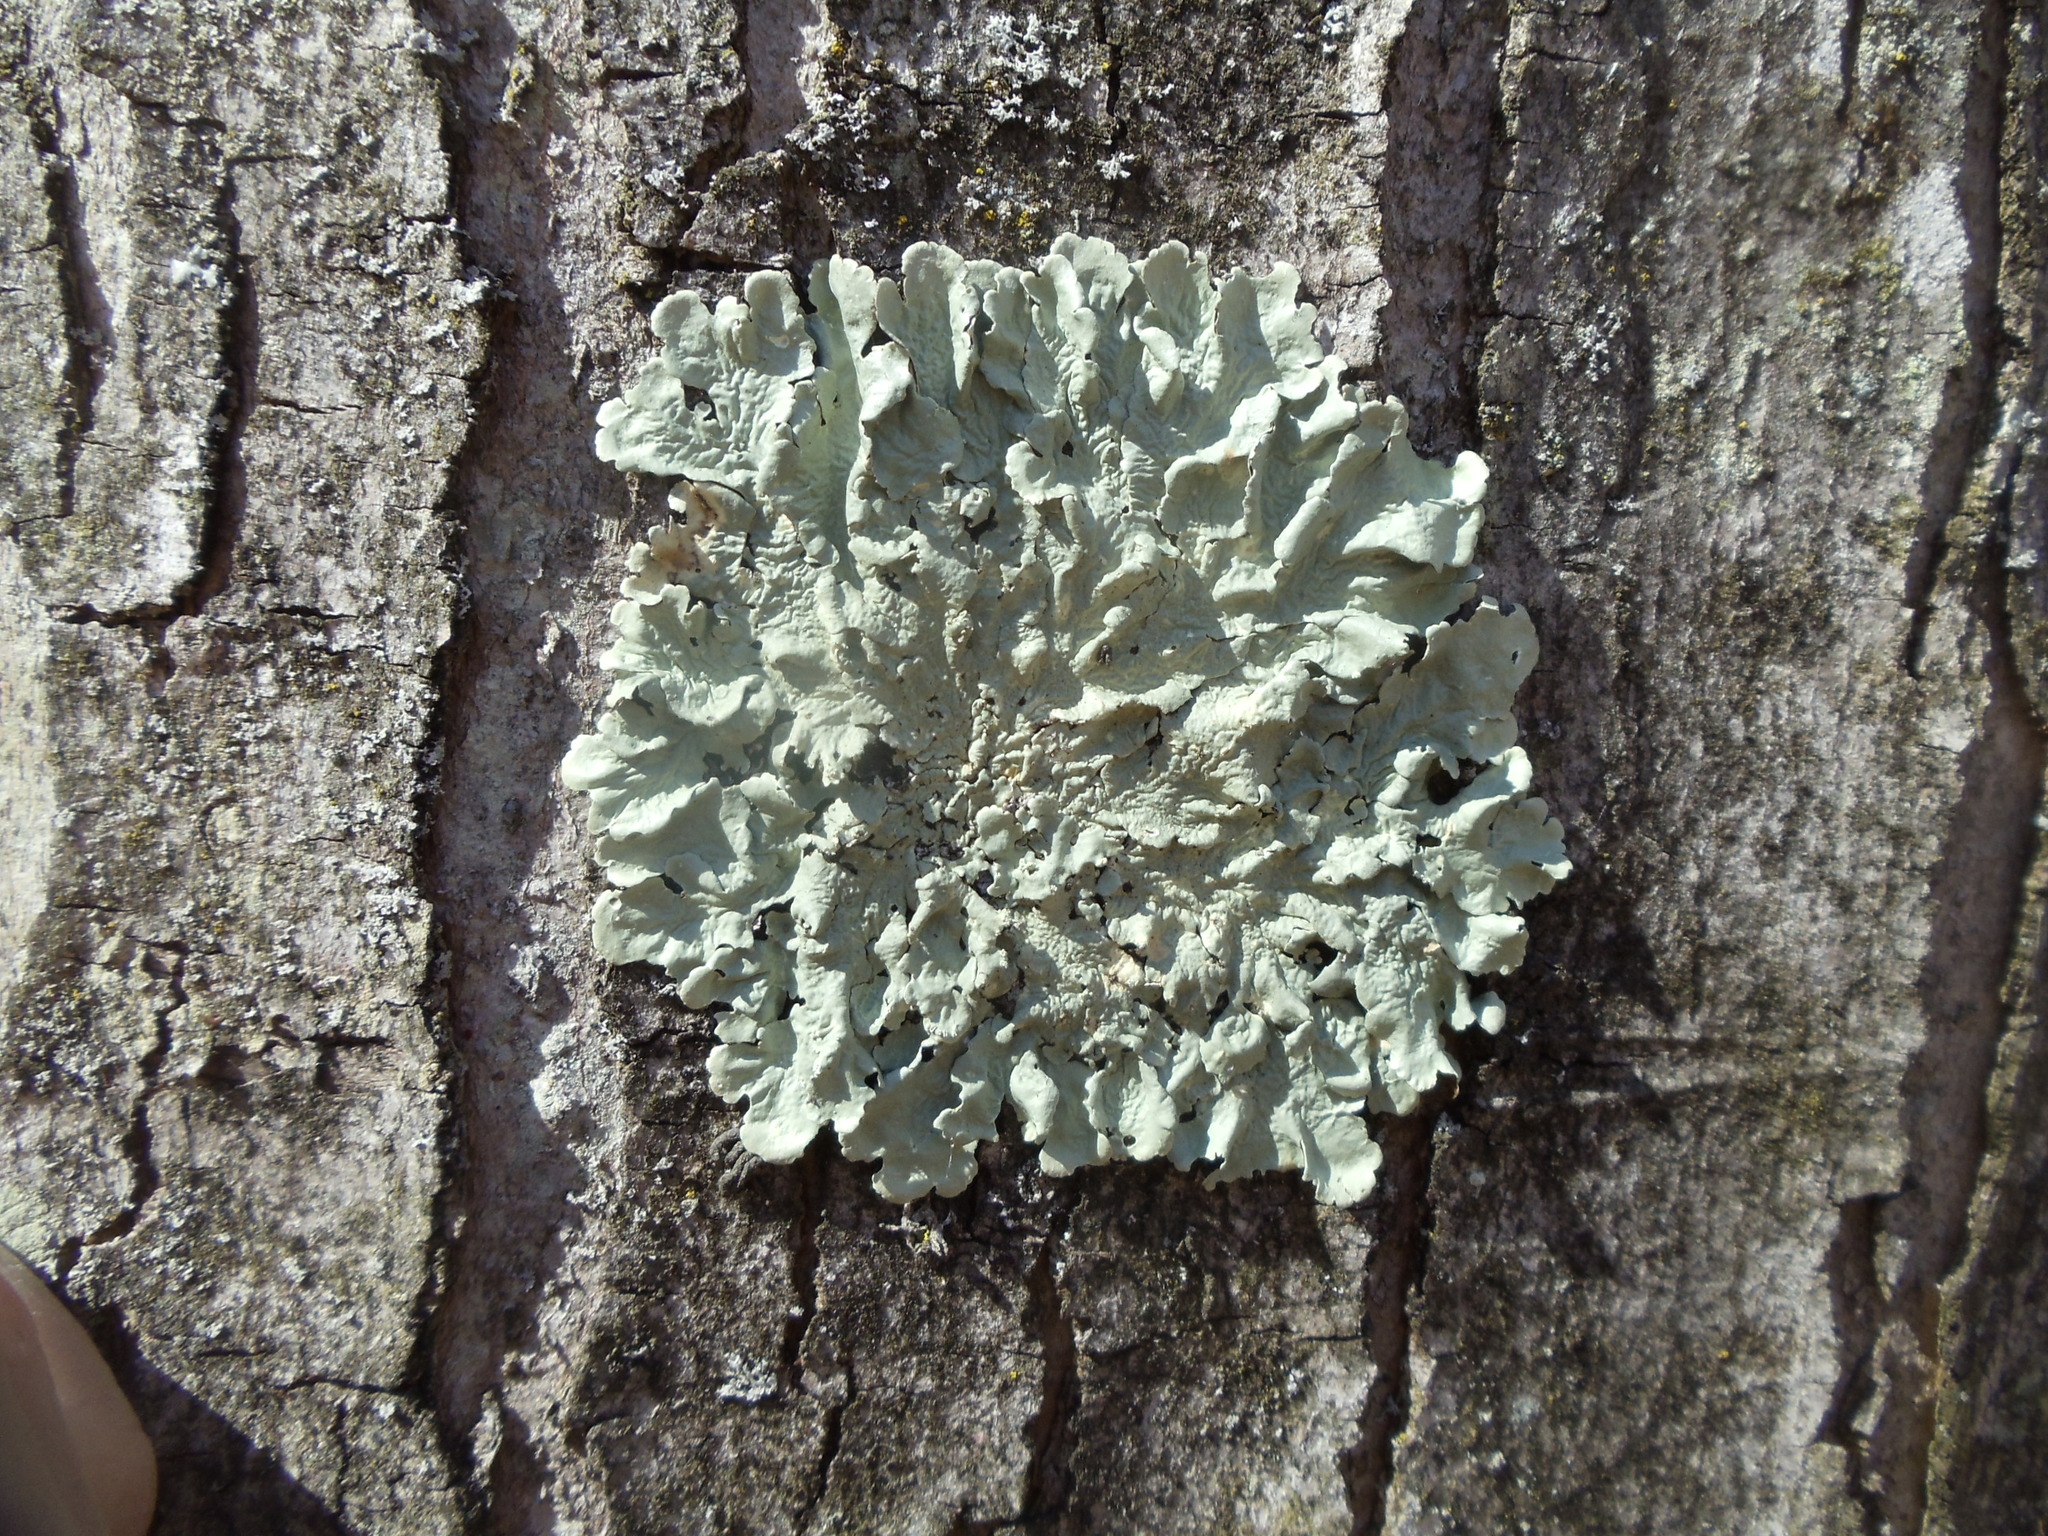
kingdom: Fungi
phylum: Ascomycota
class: Lecanoromycetes
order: Lecanorales
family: Parmeliaceae
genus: Flavoparmelia
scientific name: Flavoparmelia caperata
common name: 40-mile per hour lichen
